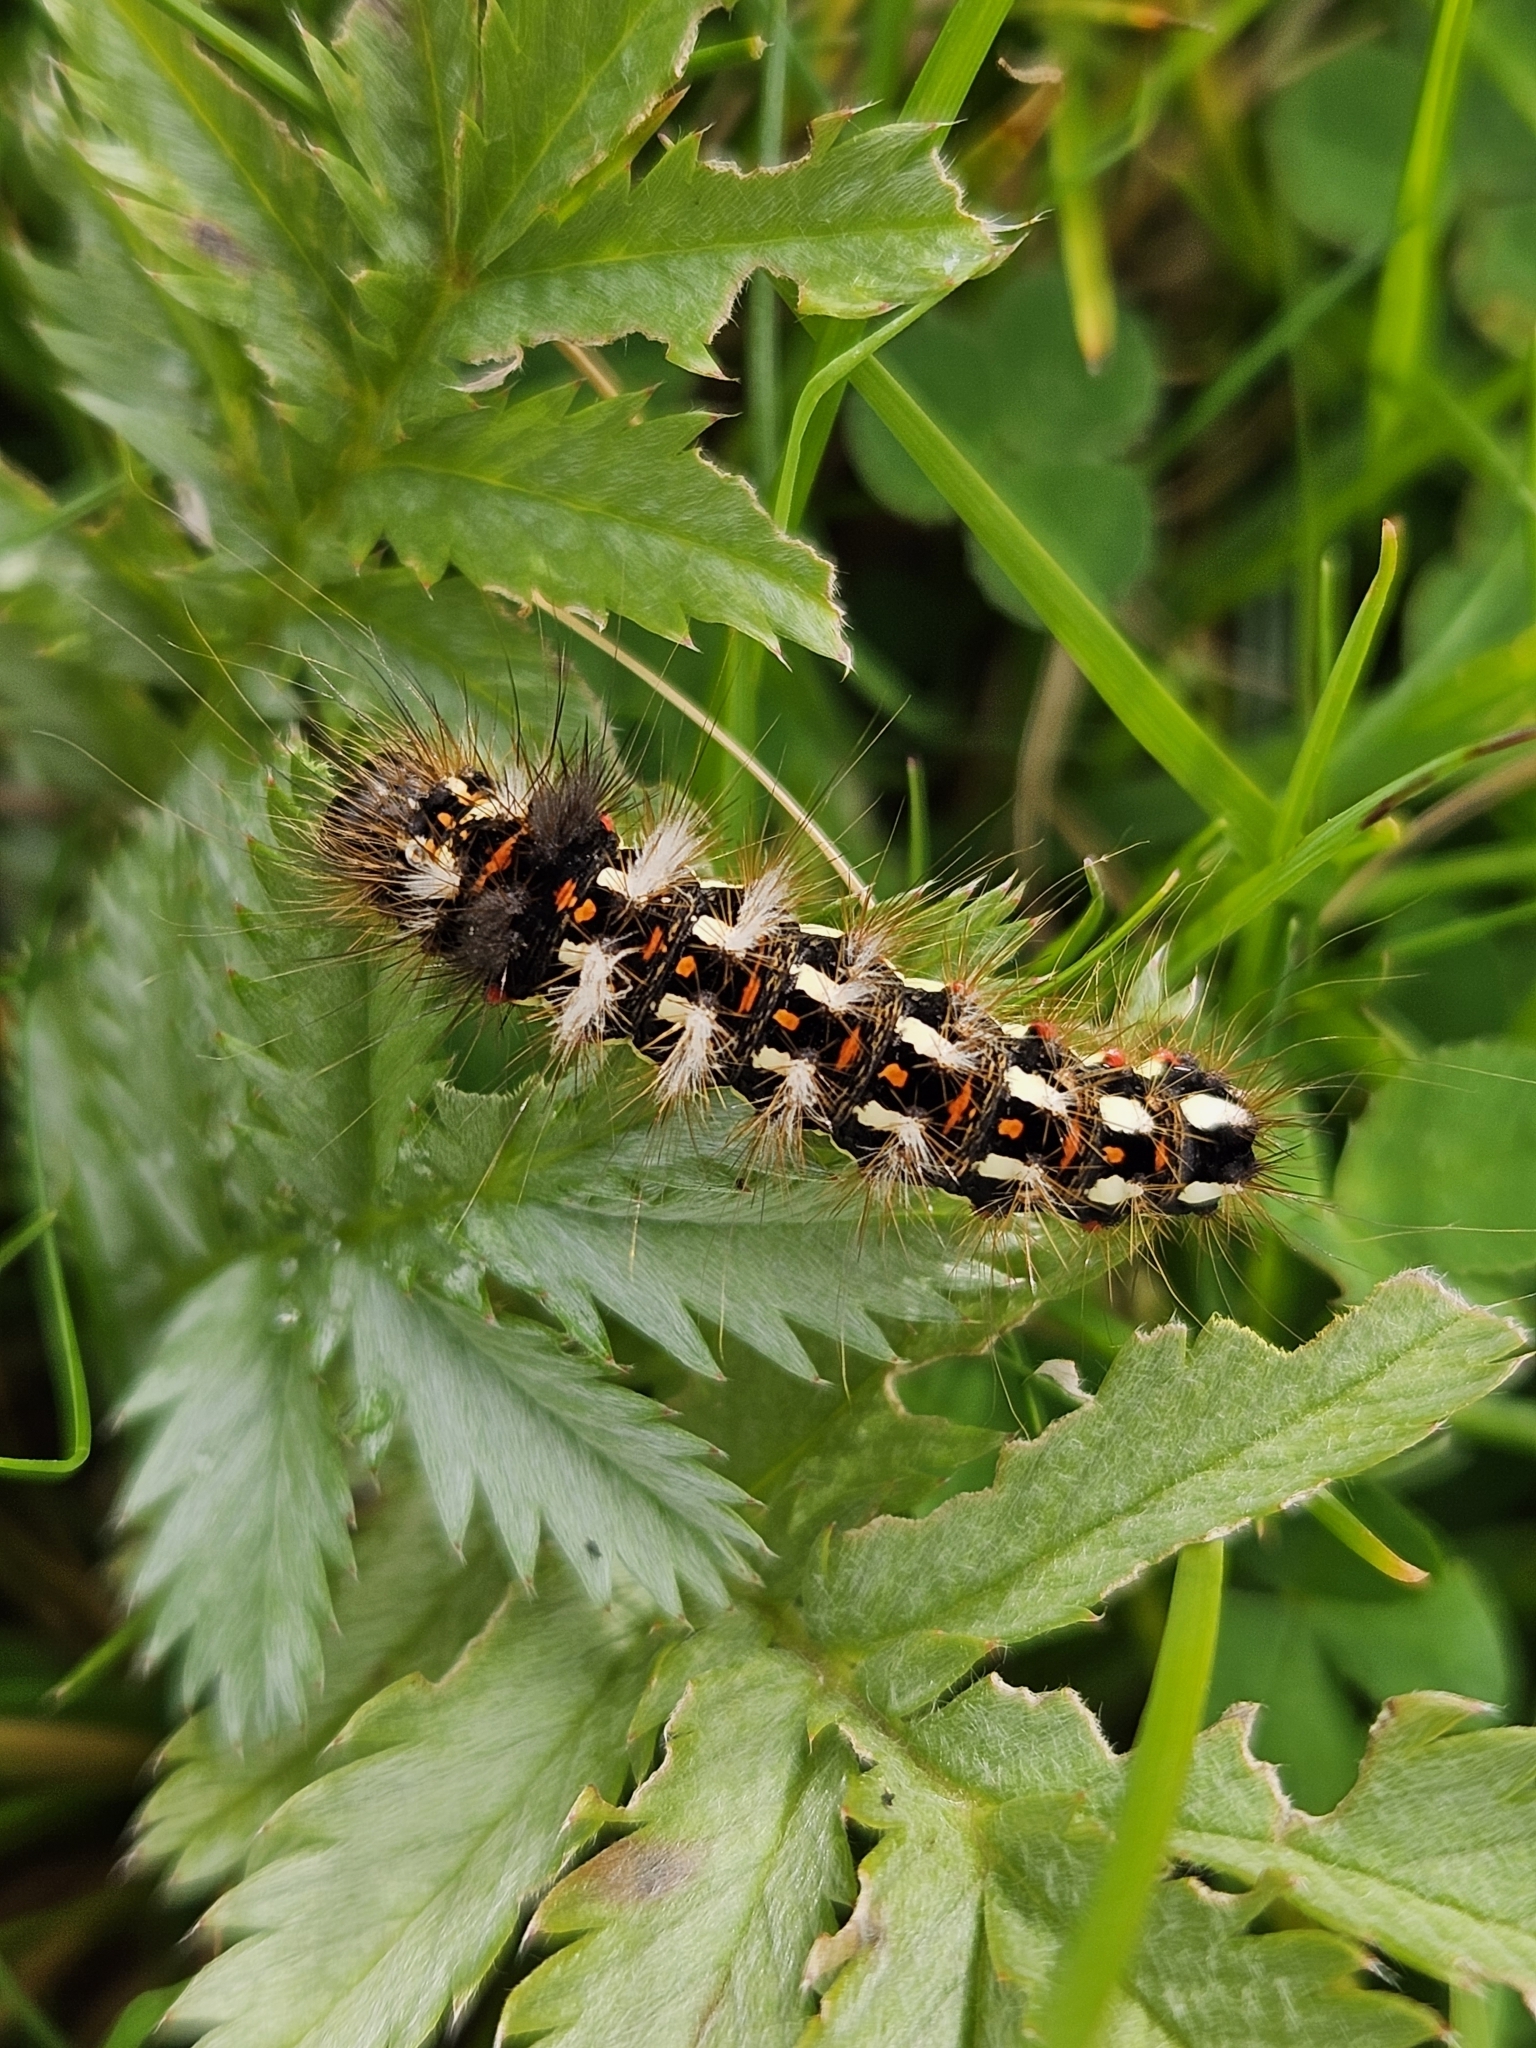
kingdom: Animalia
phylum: Arthropoda
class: Insecta
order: Lepidoptera
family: Noctuidae
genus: Acronicta
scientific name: Acronicta rumicis
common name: Knot grass
